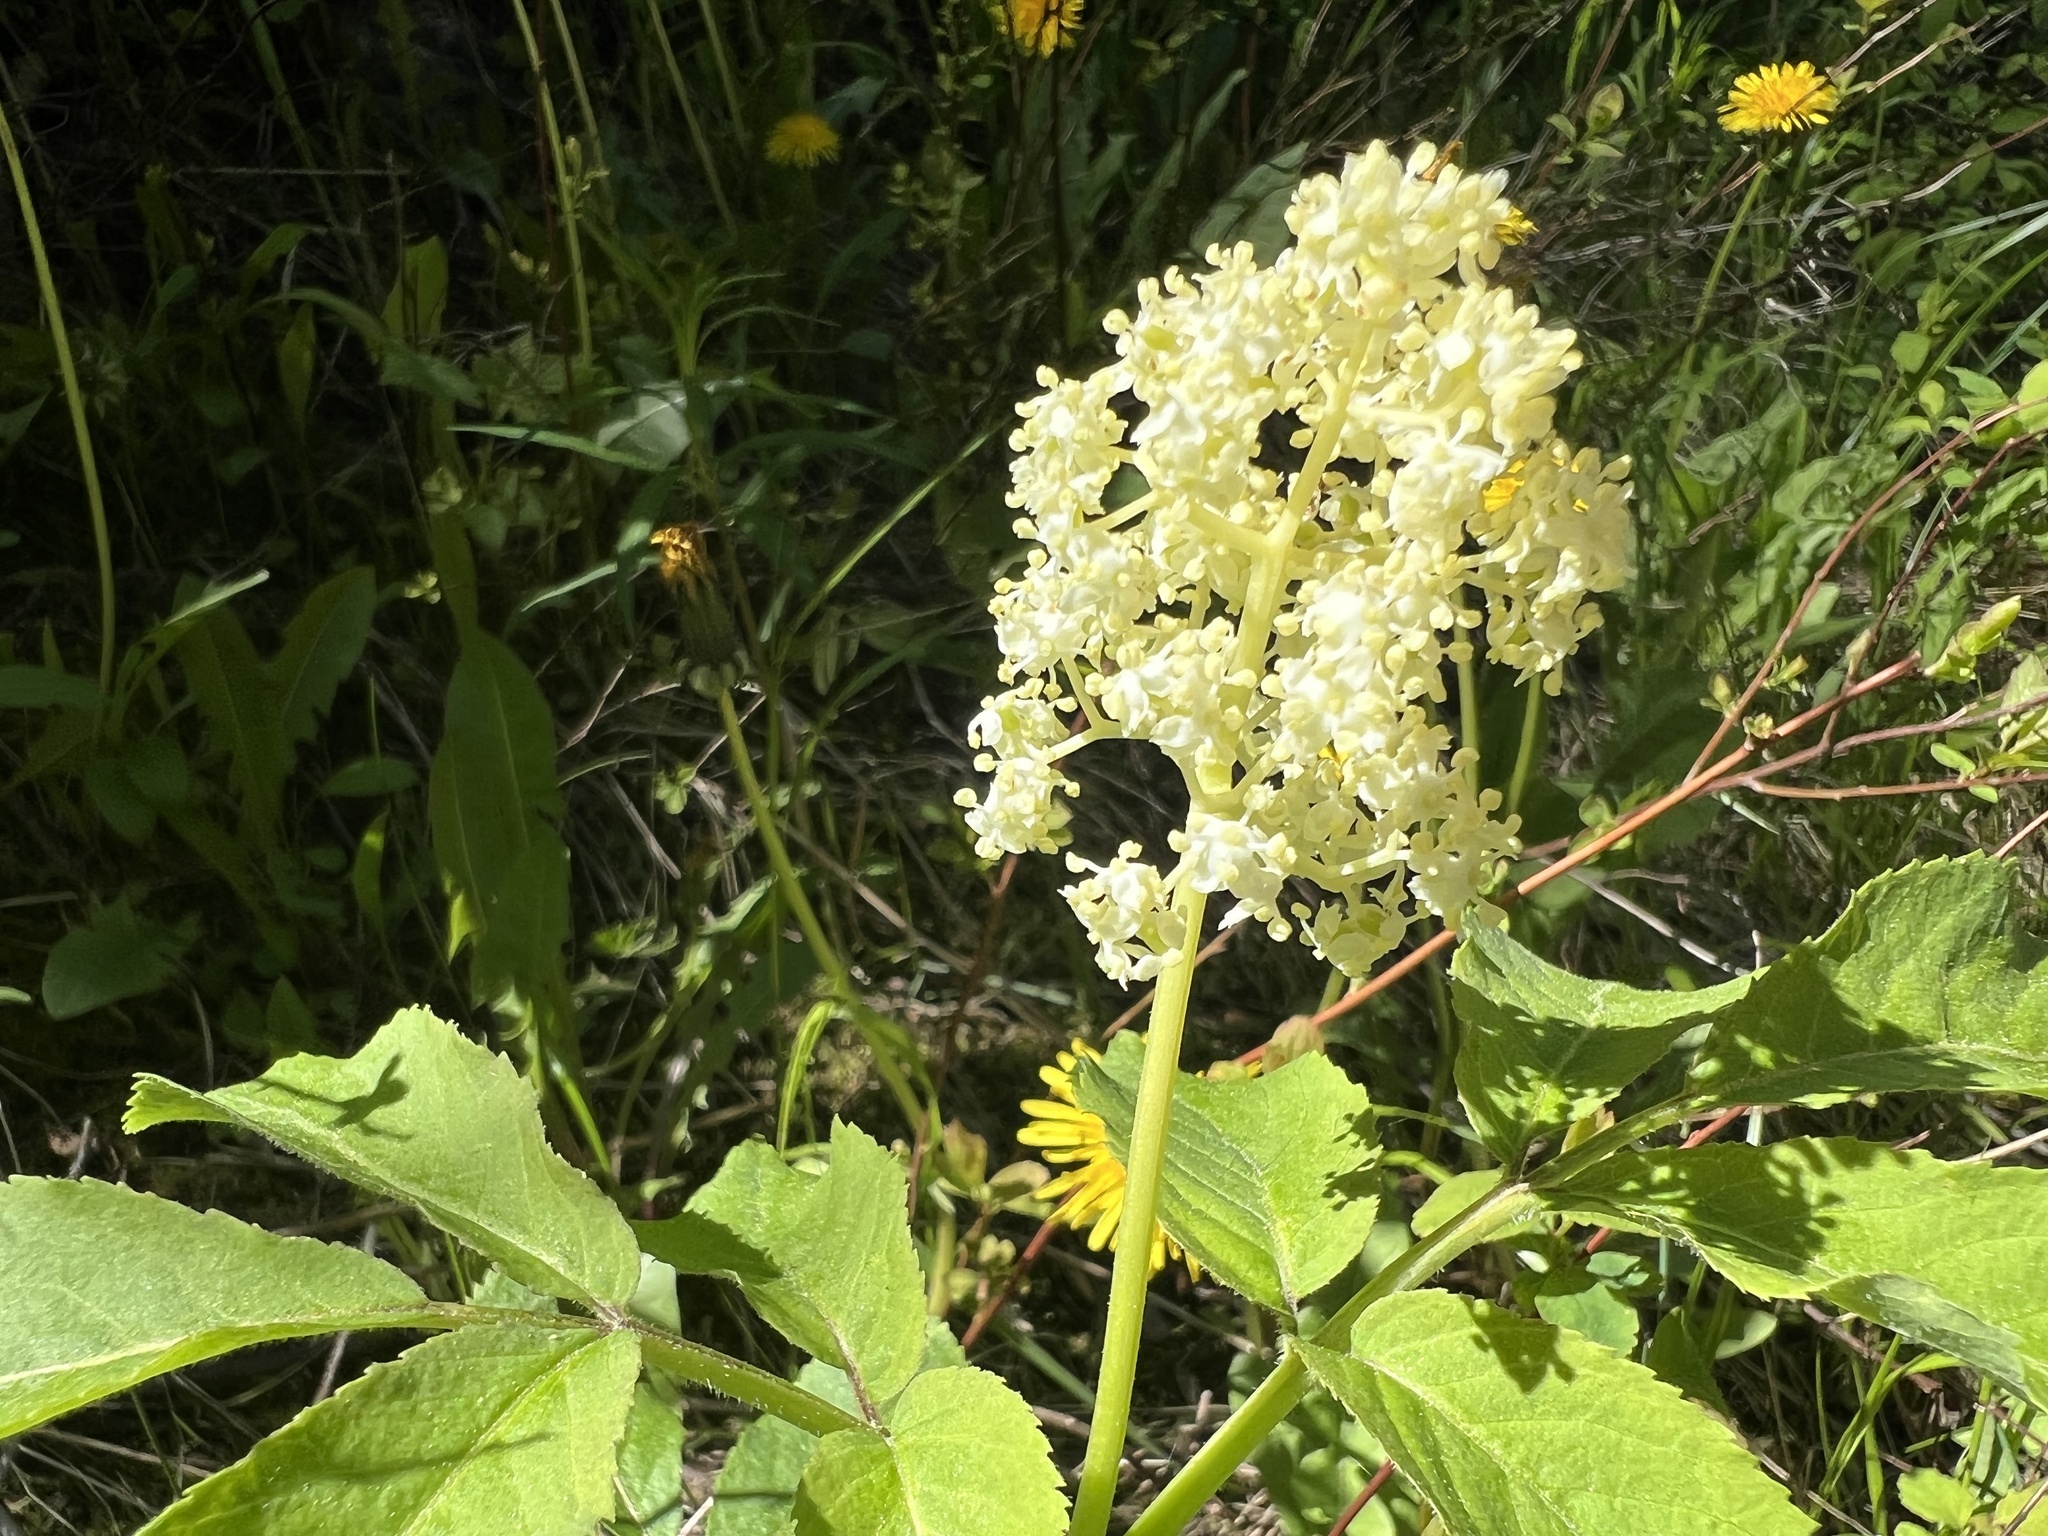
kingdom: Plantae
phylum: Tracheophyta
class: Magnoliopsida
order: Dipsacales
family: Viburnaceae
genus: Sambucus
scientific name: Sambucus racemosa
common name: Red-berried elder
